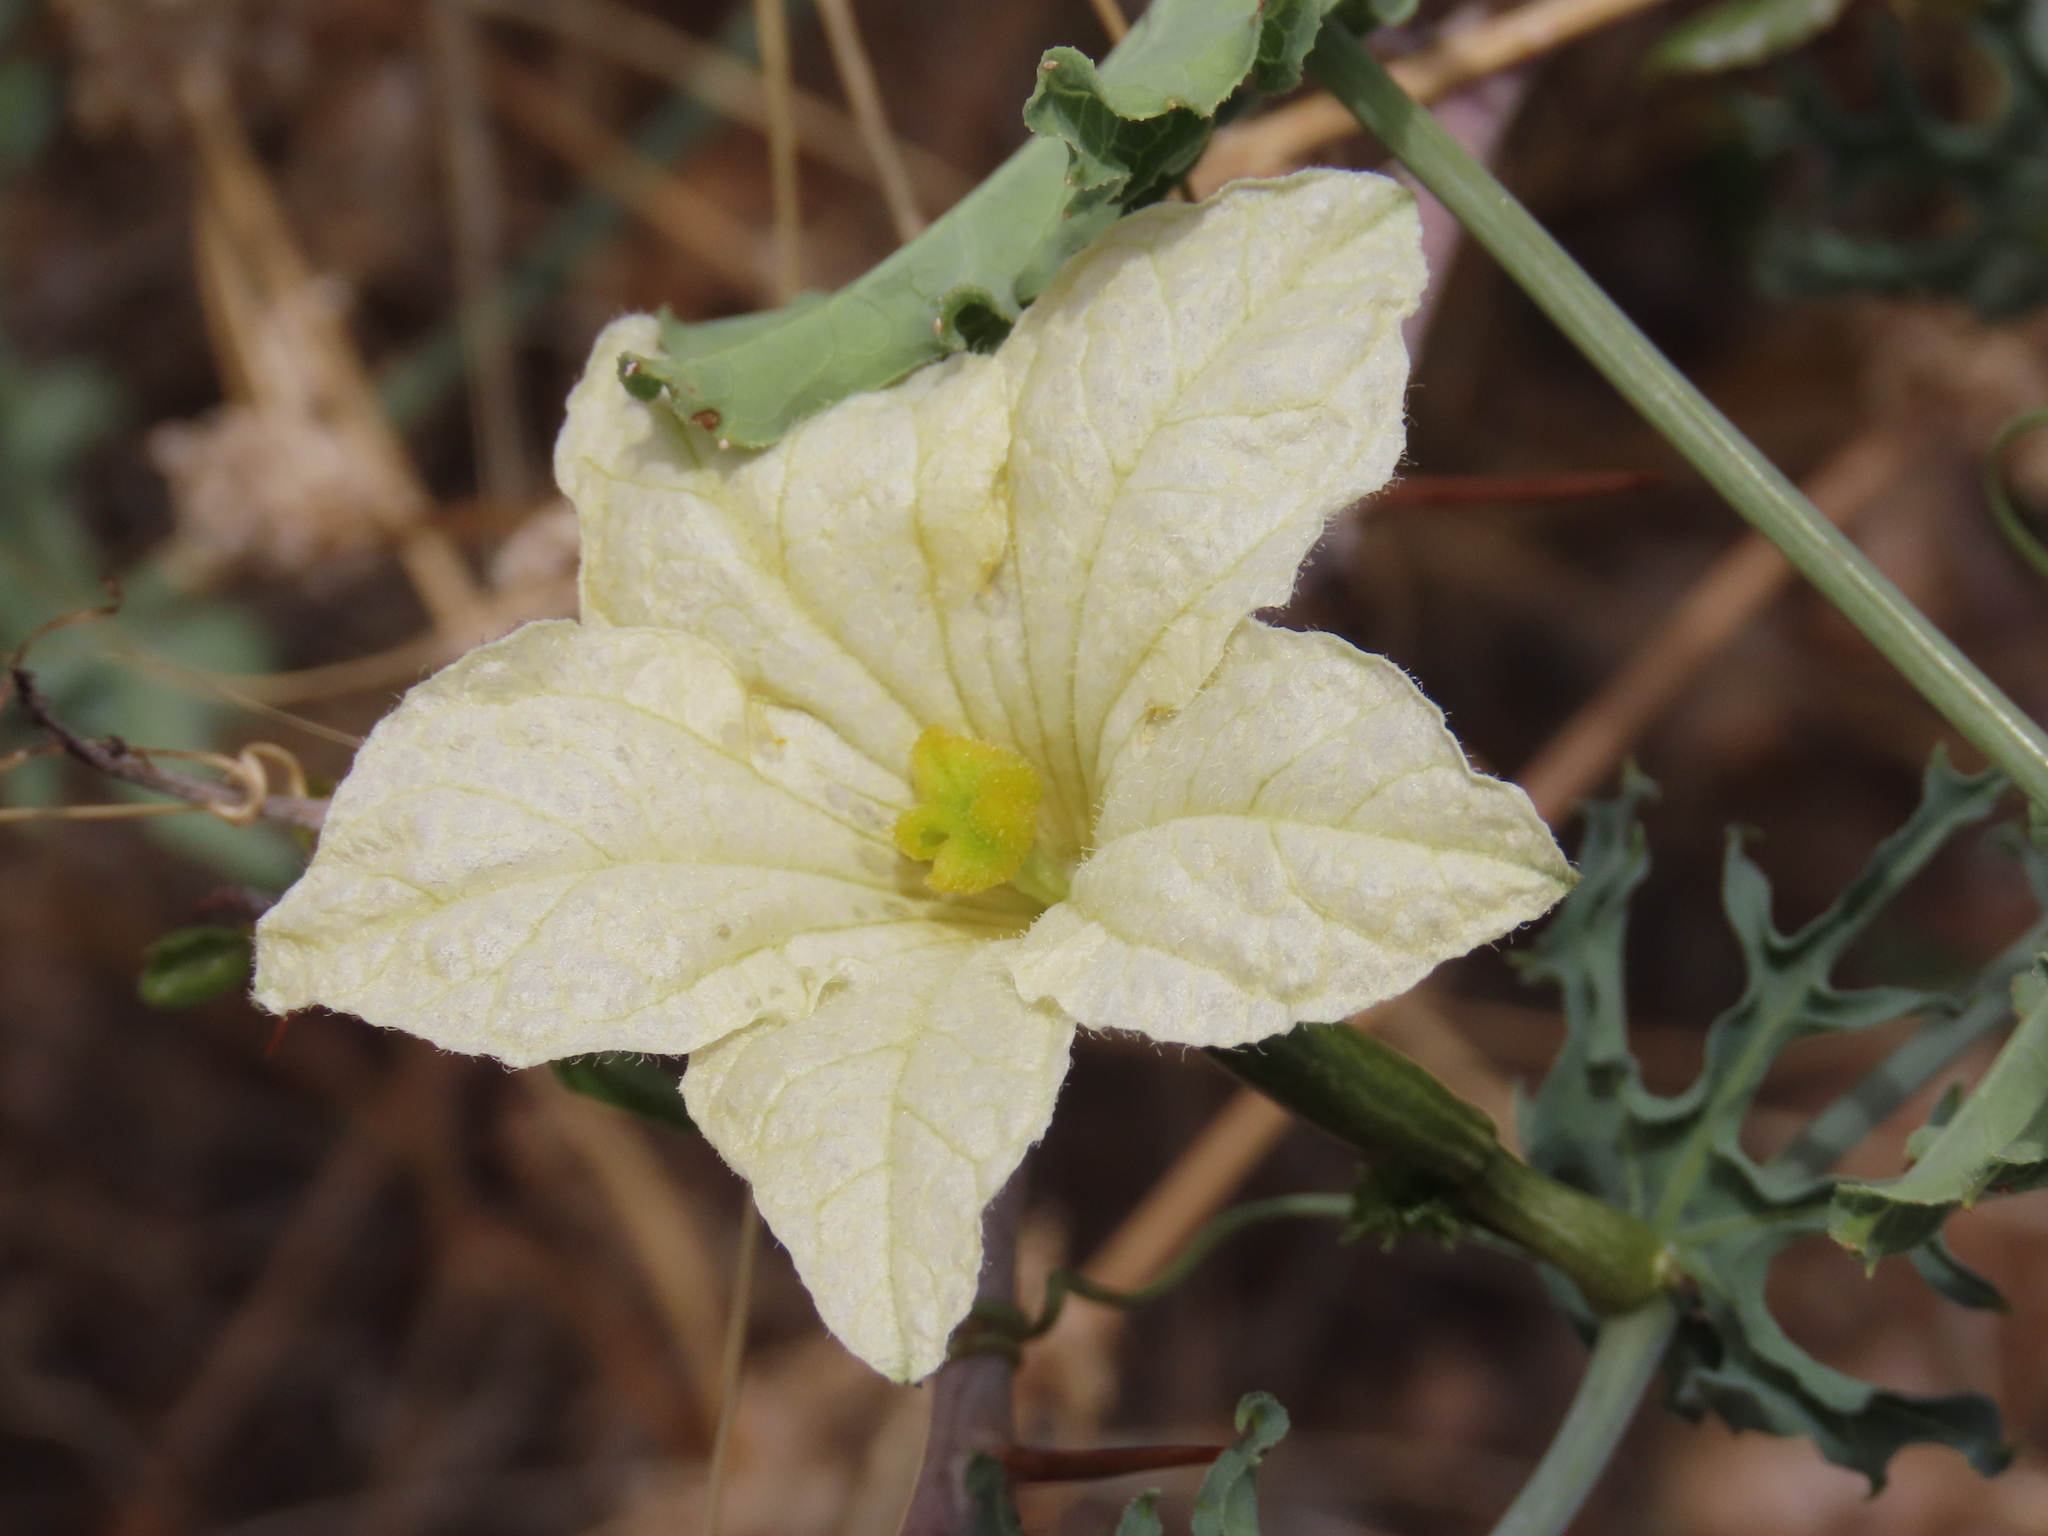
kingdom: Plantae
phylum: Tracheophyta
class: Magnoliopsida
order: Cucurbitales
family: Cucurbitaceae
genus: Coccinia
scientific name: Coccinia sessilifolia
